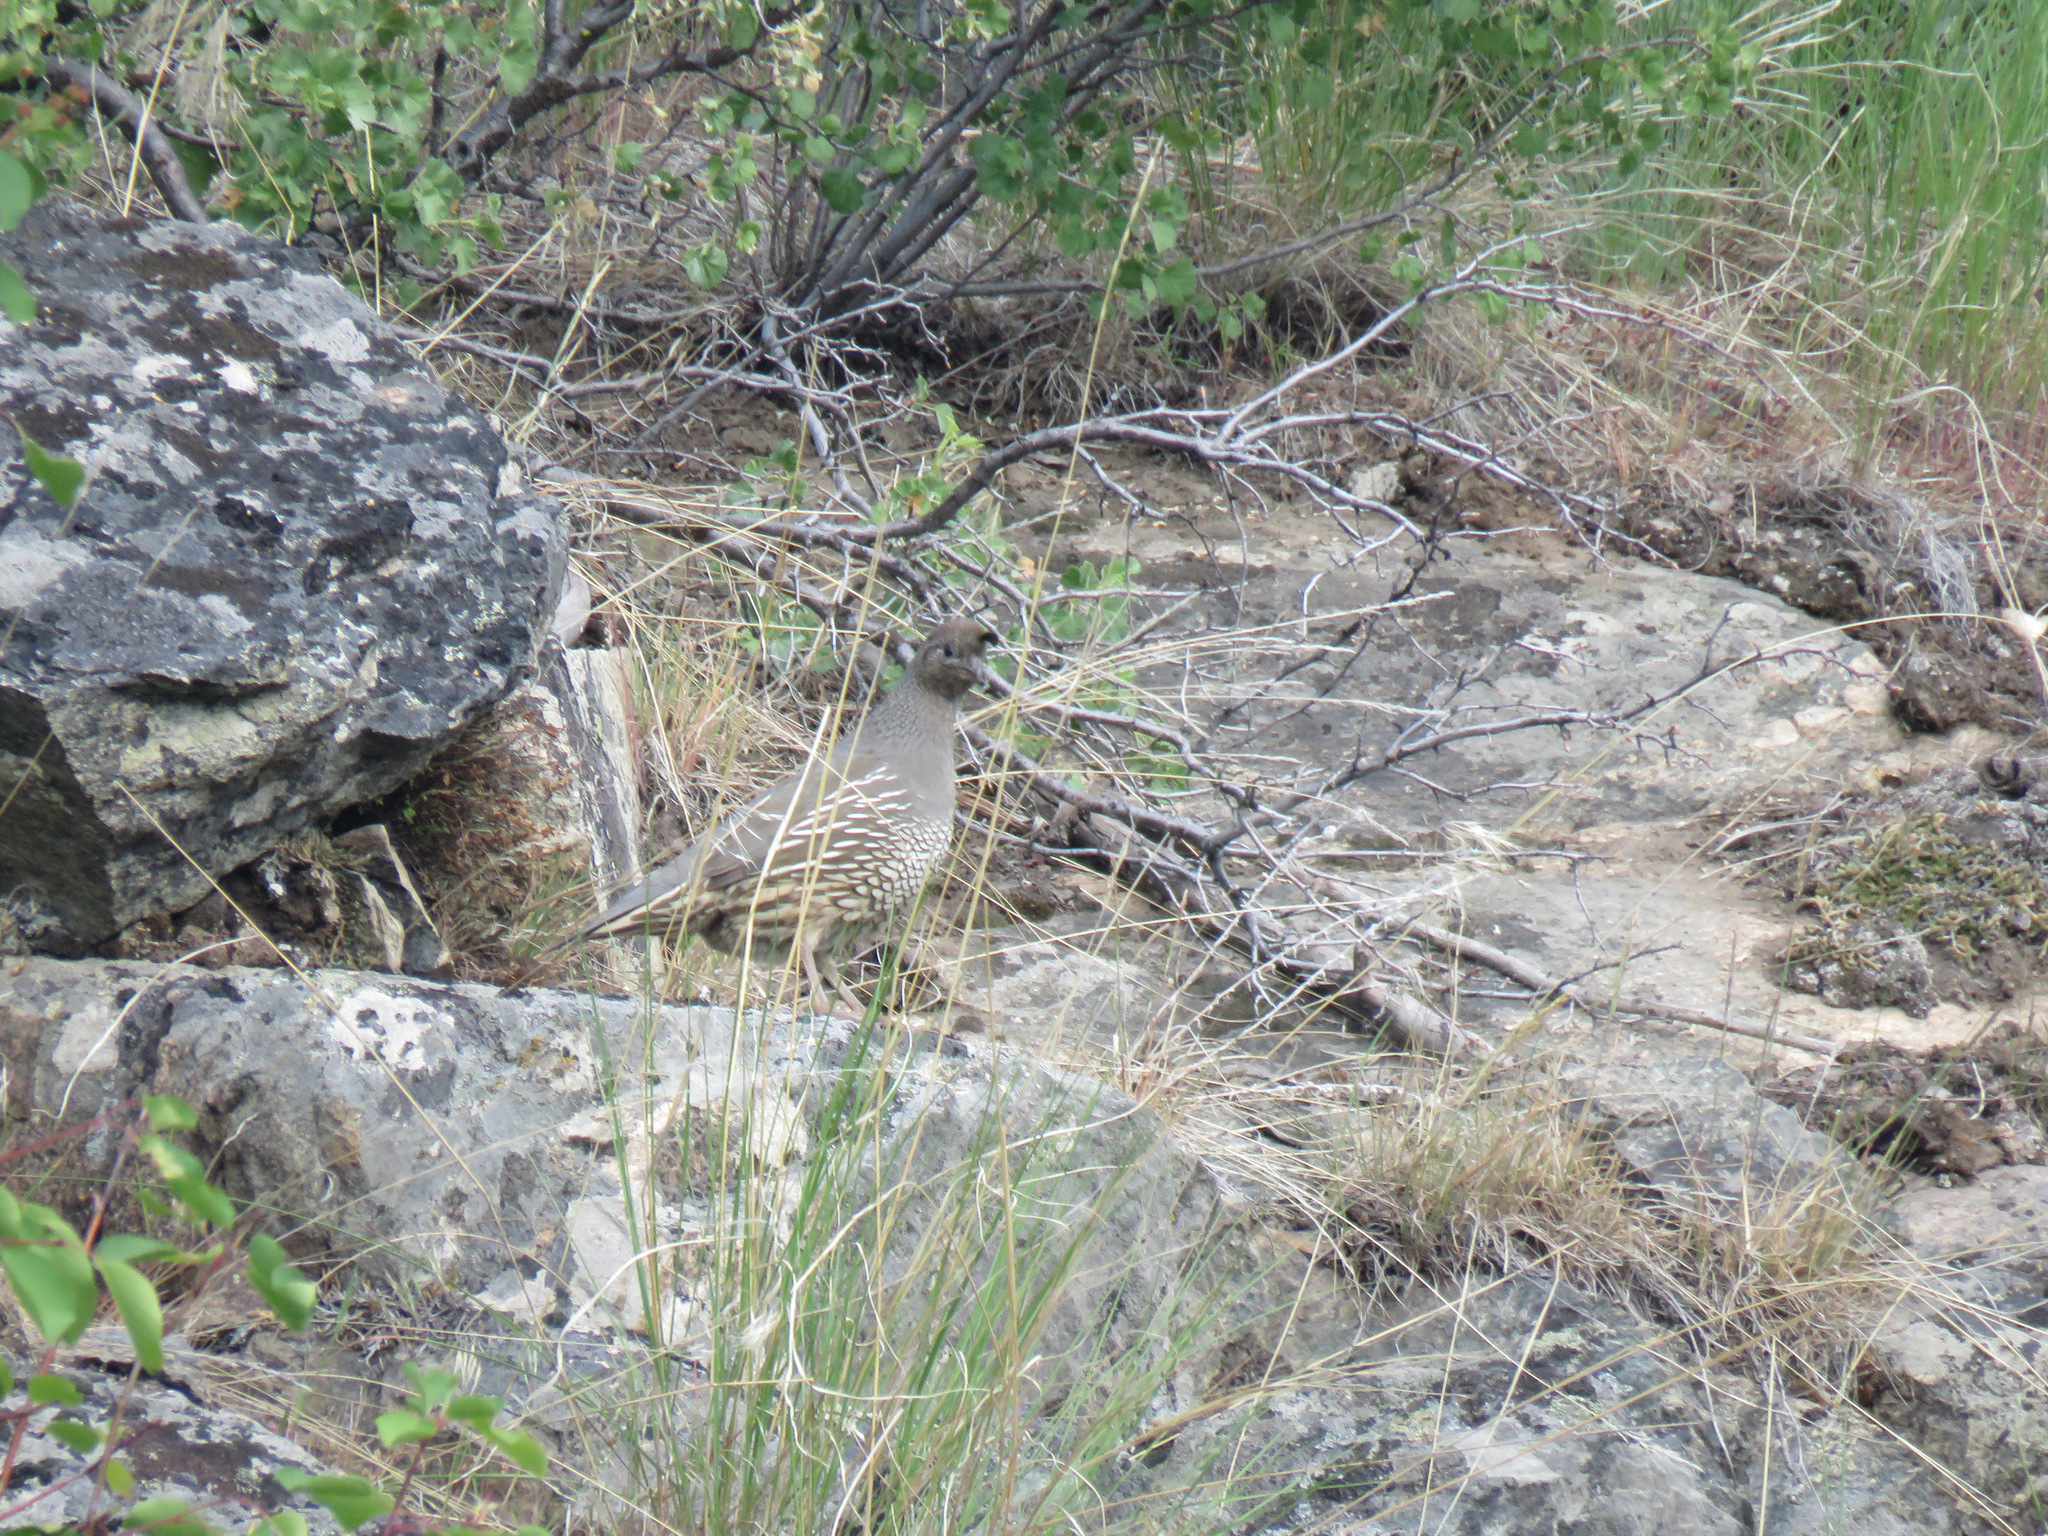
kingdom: Animalia
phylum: Chordata
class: Aves
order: Galliformes
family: Odontophoridae
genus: Callipepla
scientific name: Callipepla californica
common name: California quail
